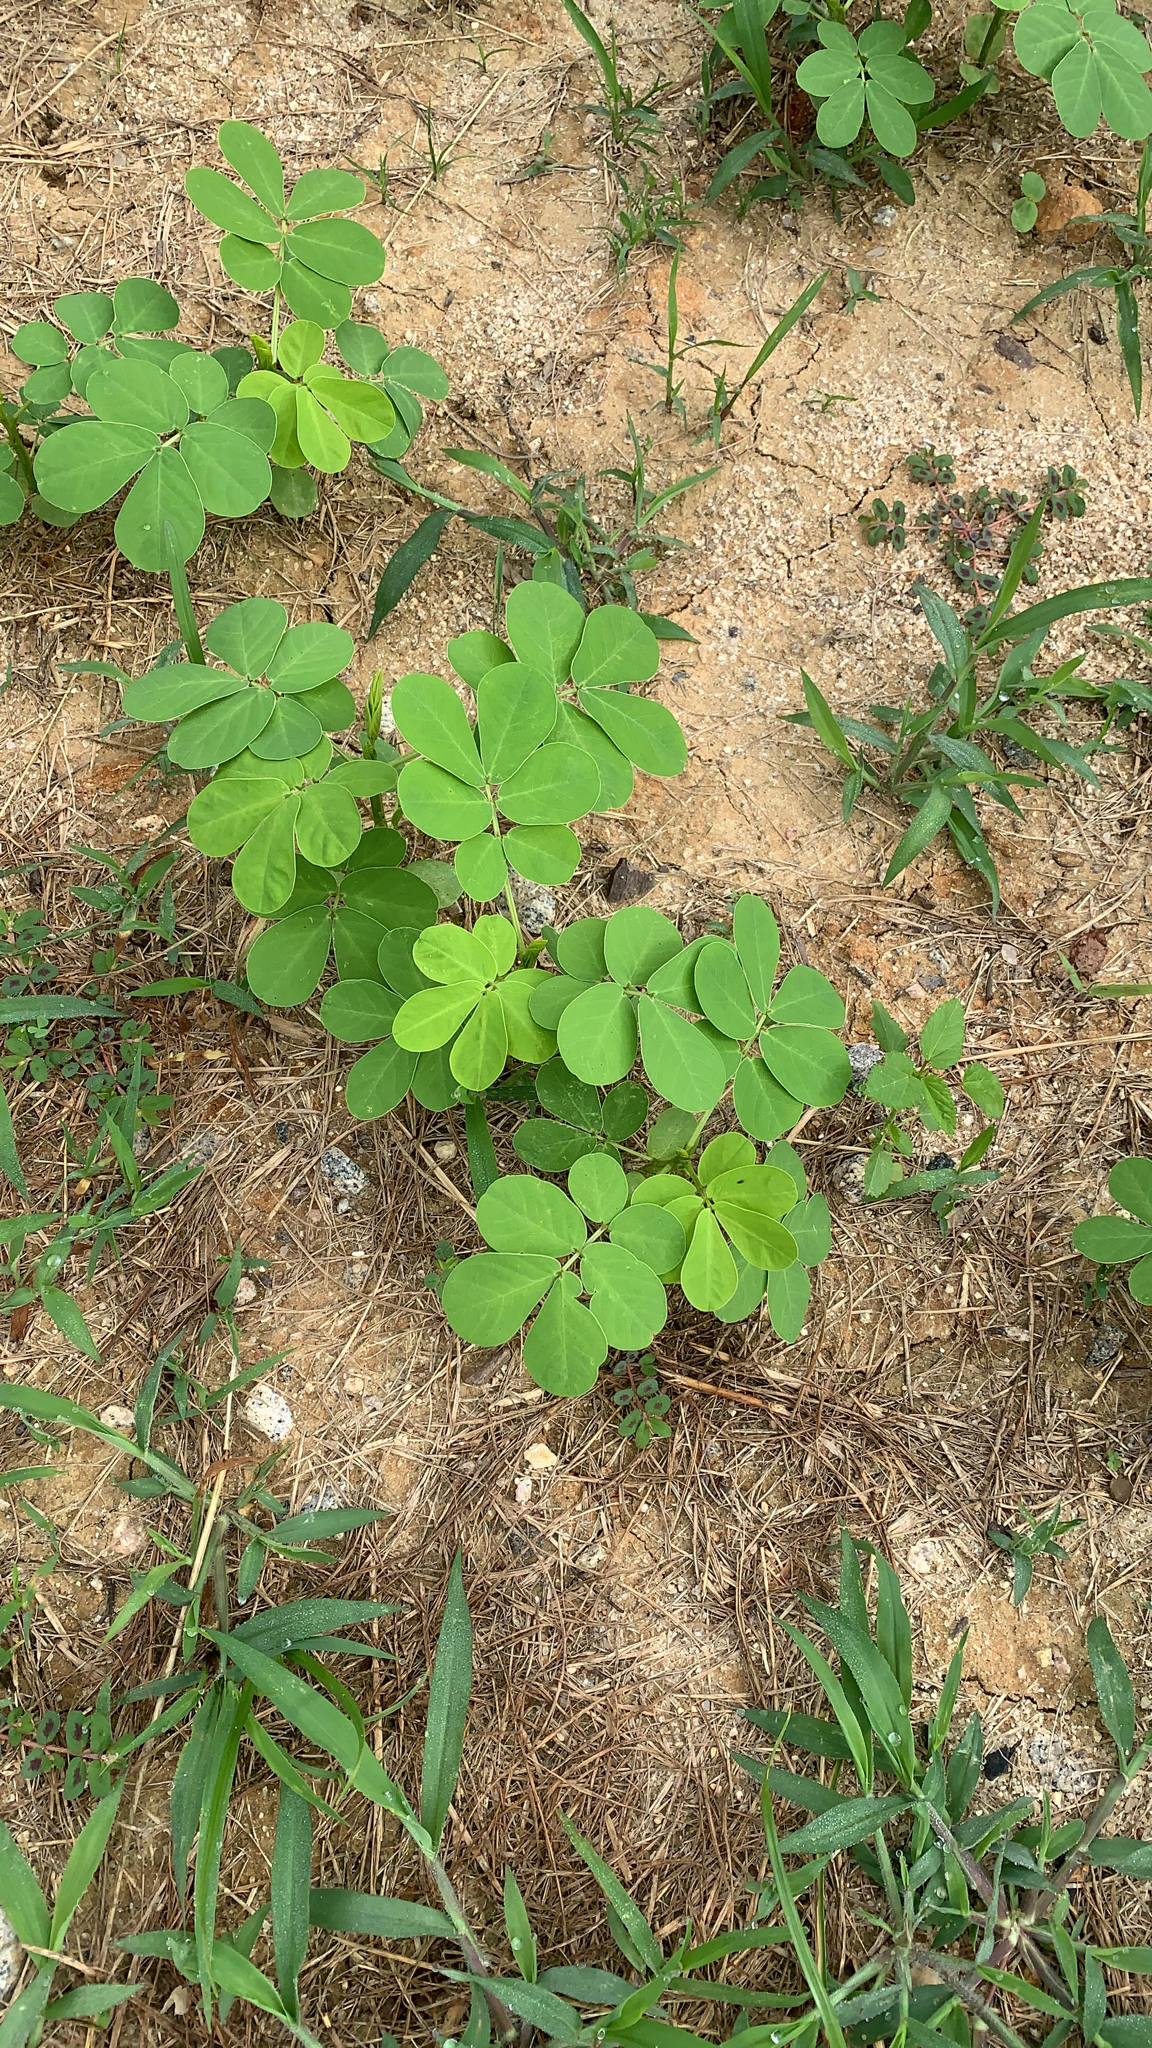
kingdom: Plantae
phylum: Tracheophyta
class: Magnoliopsida
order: Fabales
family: Fabaceae
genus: Senna
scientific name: Senna obtusifolia
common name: Java-bean
